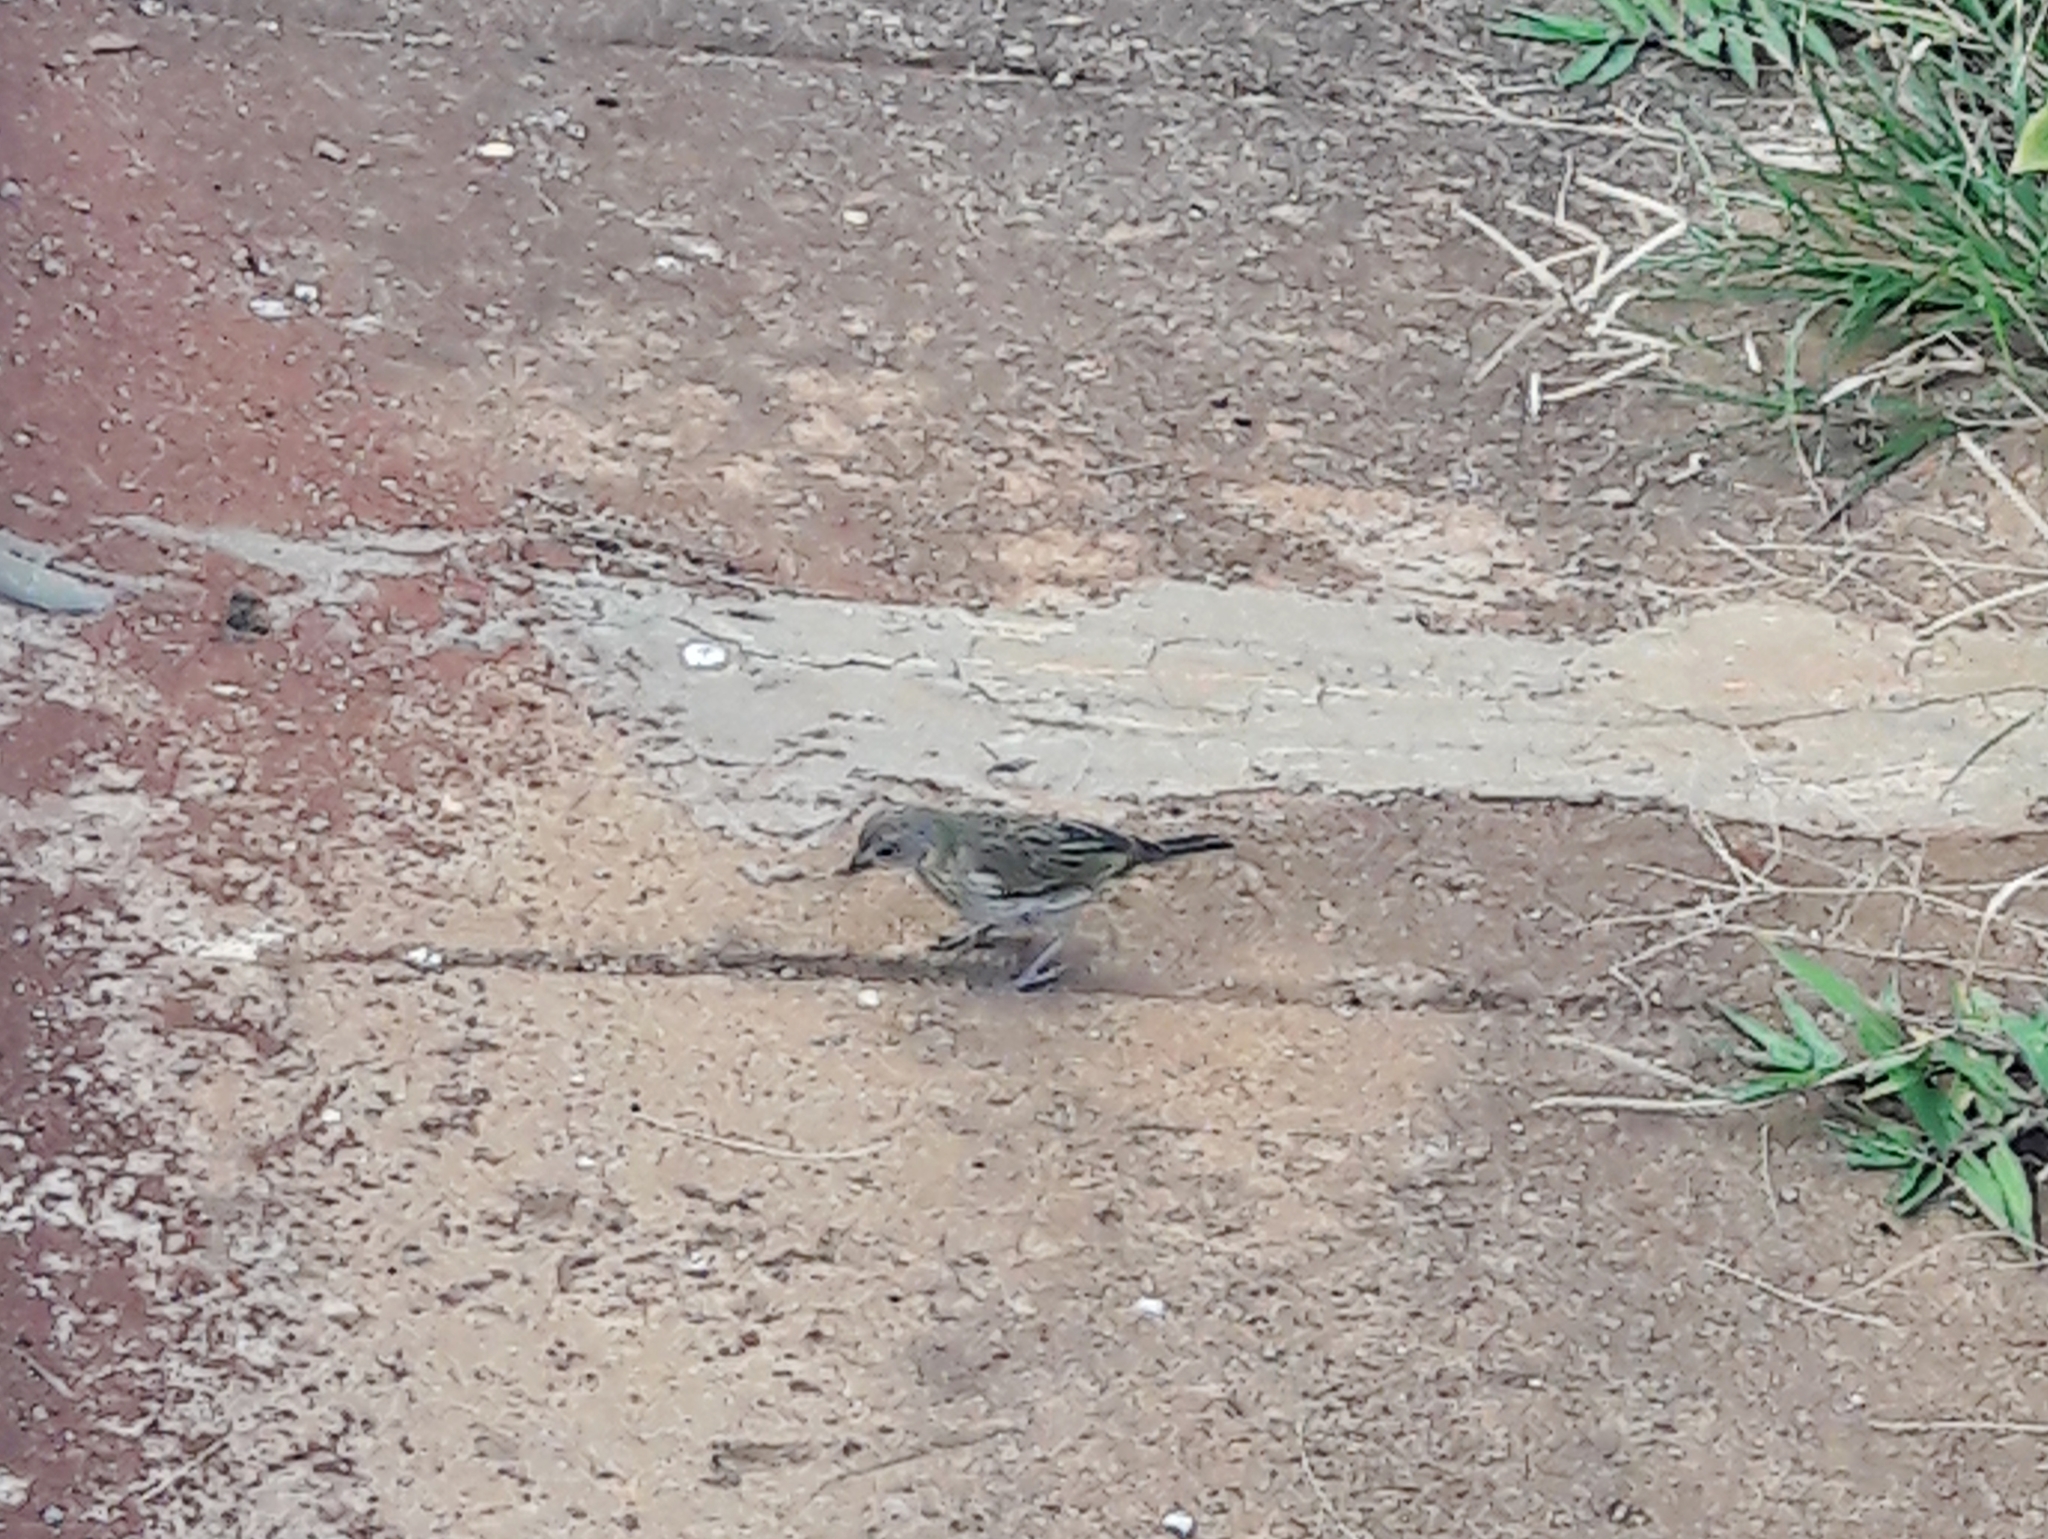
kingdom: Animalia
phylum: Chordata
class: Aves
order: Passeriformes
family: Thraupidae
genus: Sicalis
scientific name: Sicalis flaveola
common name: Saffron finch
